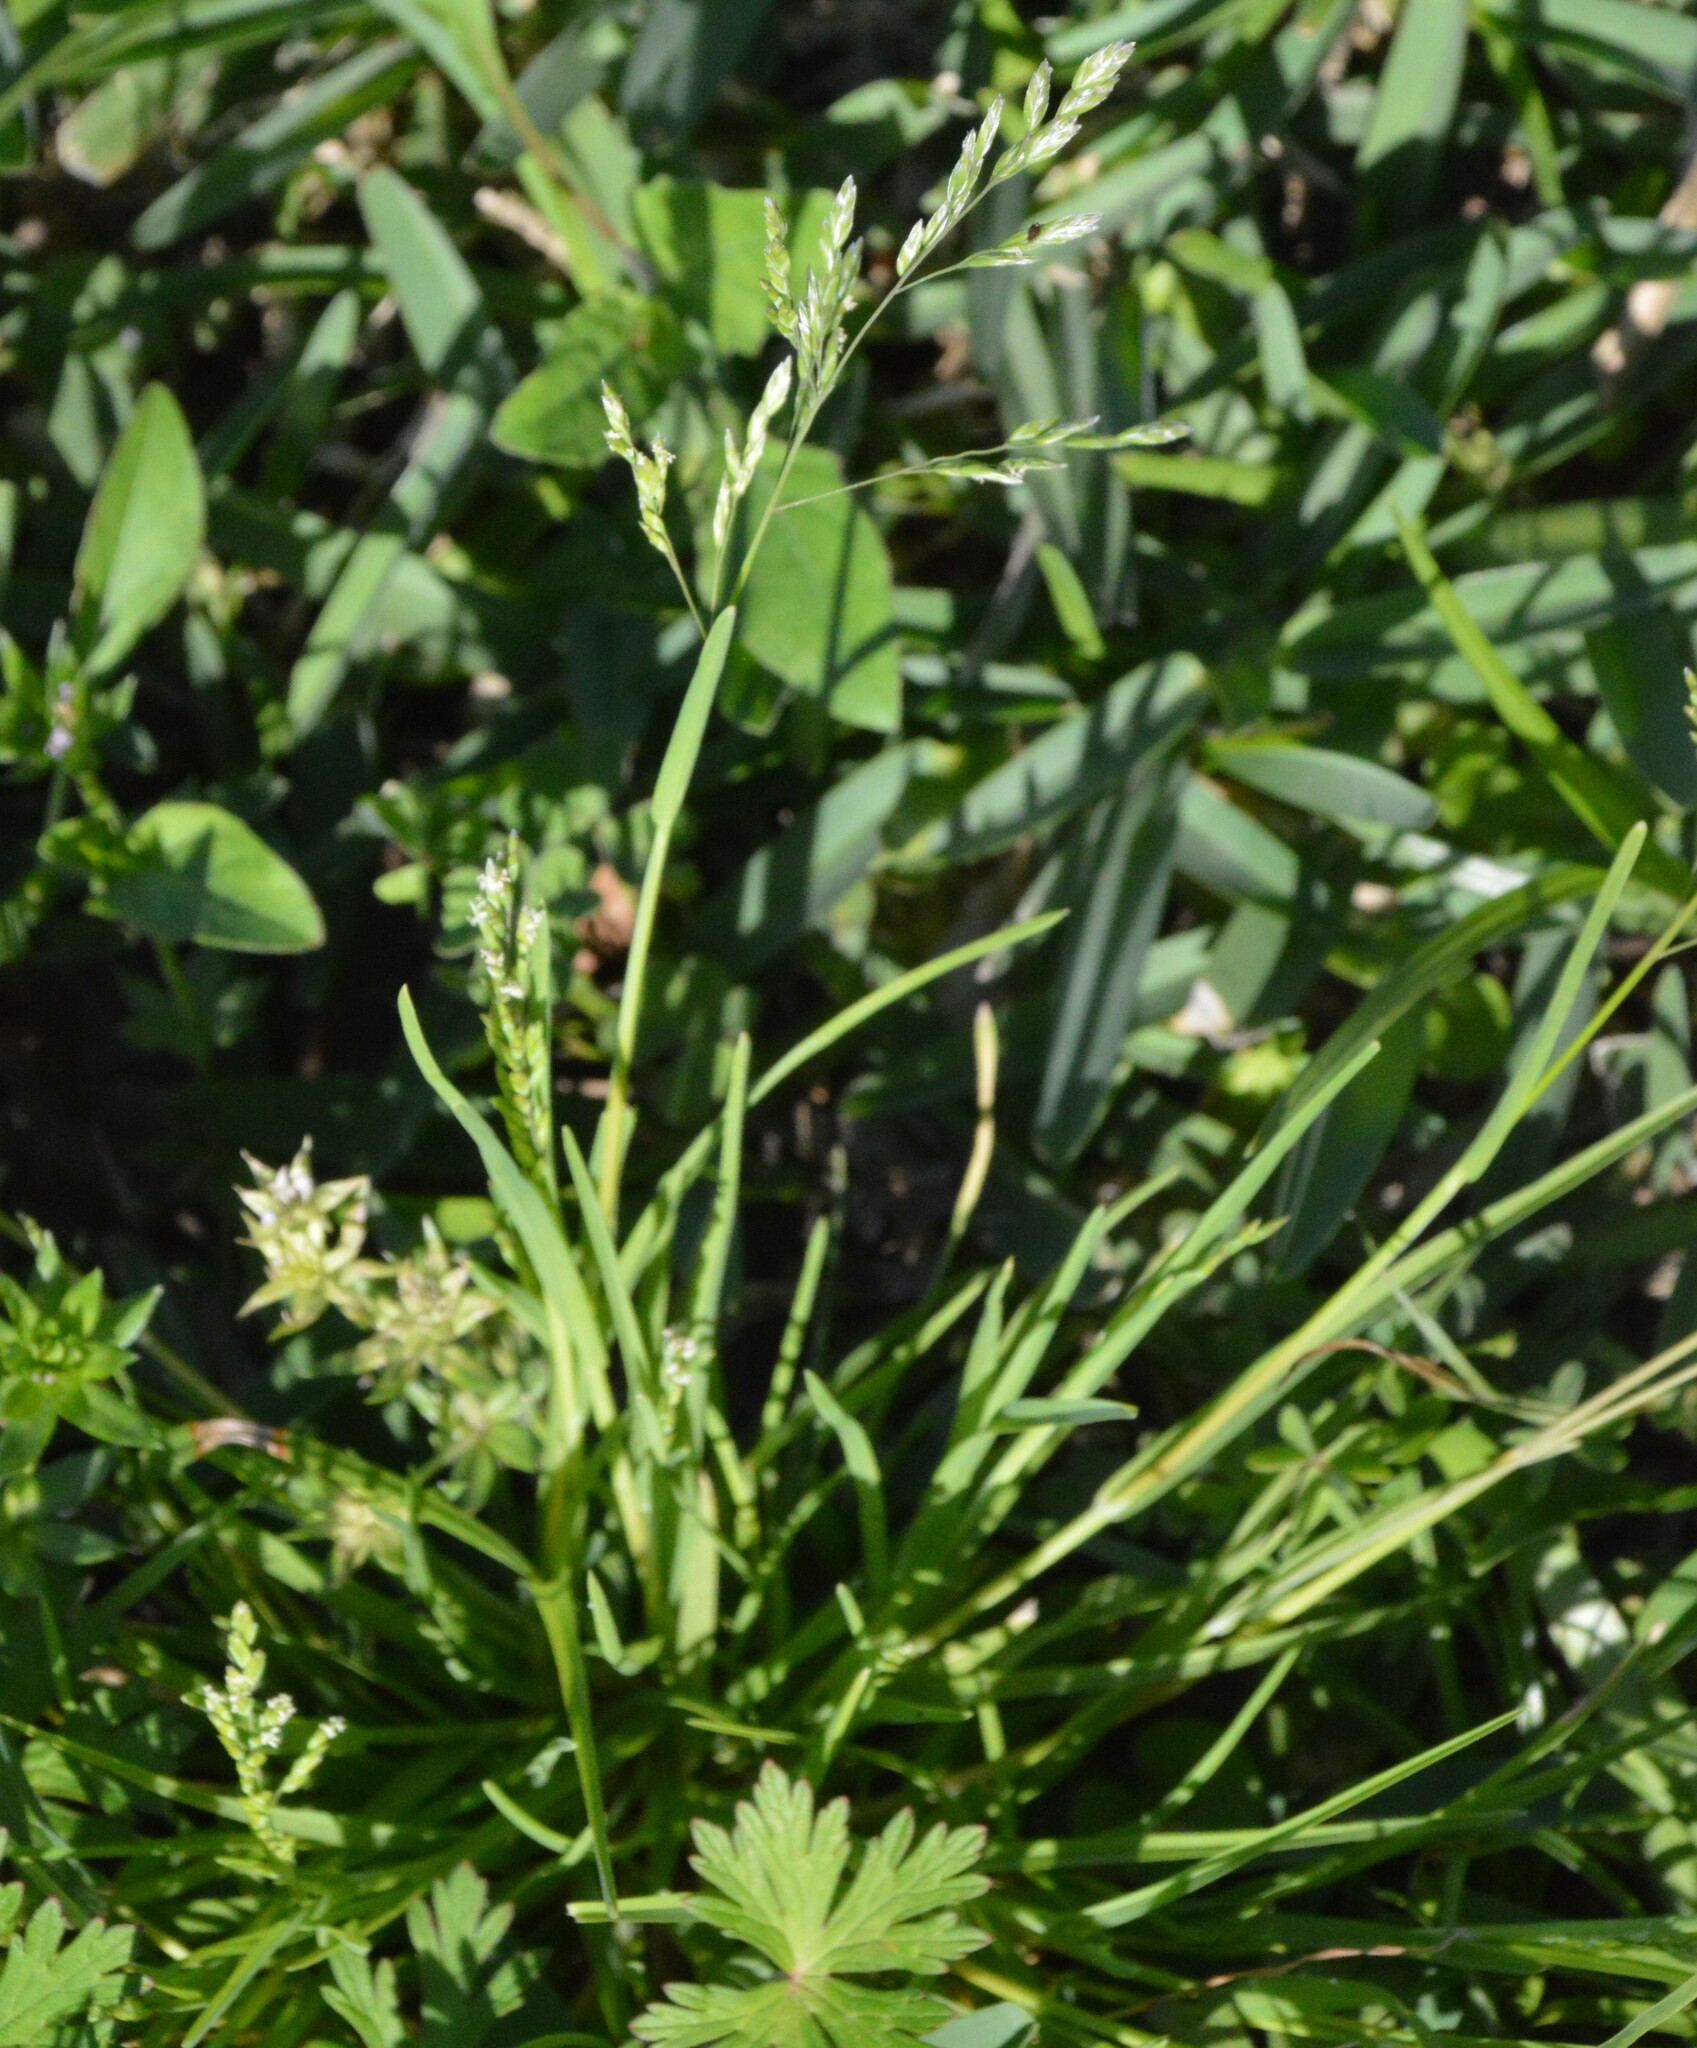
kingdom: Plantae
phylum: Tracheophyta
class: Liliopsida
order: Poales
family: Poaceae
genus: Poa
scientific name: Poa annua
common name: Annual bluegrass
